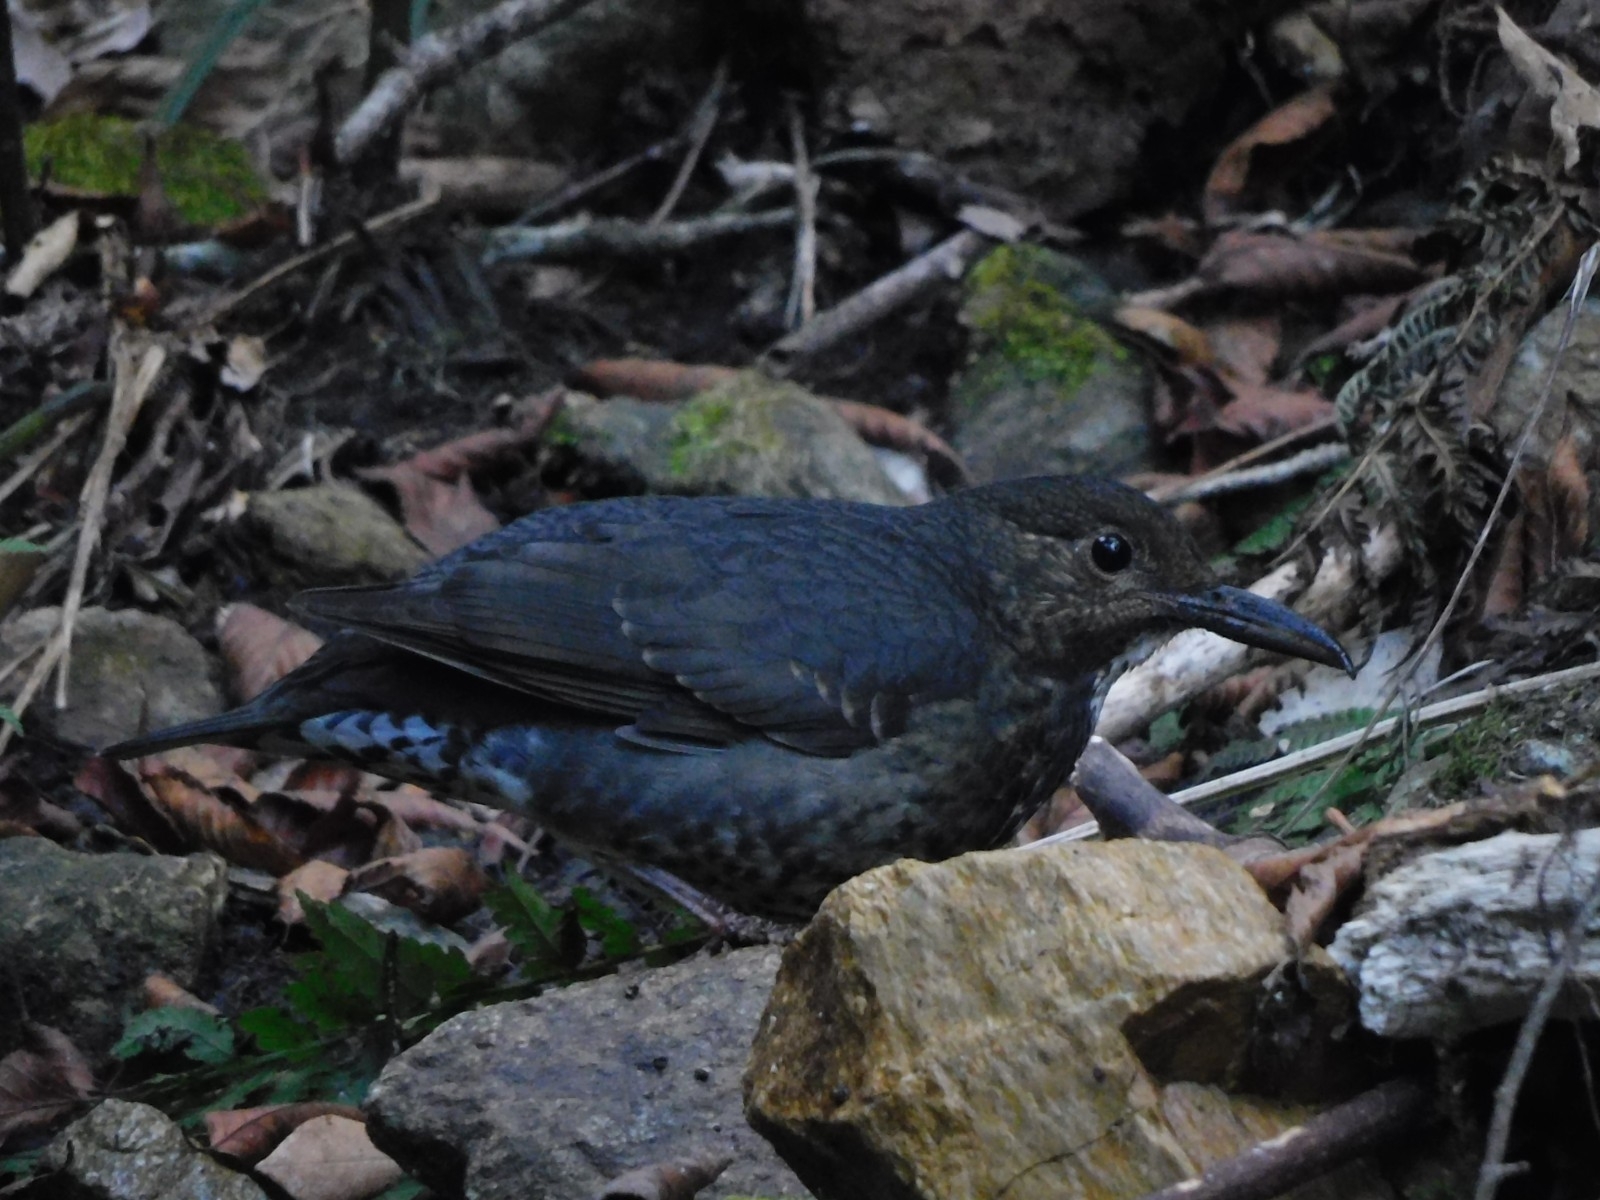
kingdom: Animalia
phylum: Chordata
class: Aves
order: Passeriformes
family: Turdidae
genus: Zoothera
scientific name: Zoothera monticola
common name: Long-billed thrush
